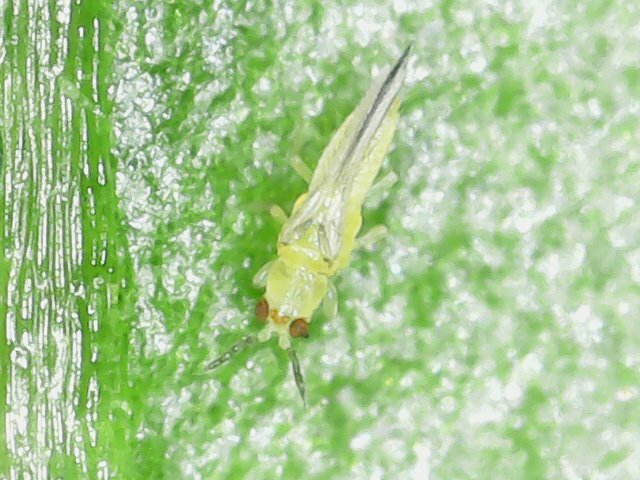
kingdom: Animalia
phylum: Arthropoda
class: Insecta
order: Thysanoptera
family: Thripidae
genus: Scirtothrips
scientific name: Scirtothrips dorsalis
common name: Thrips
